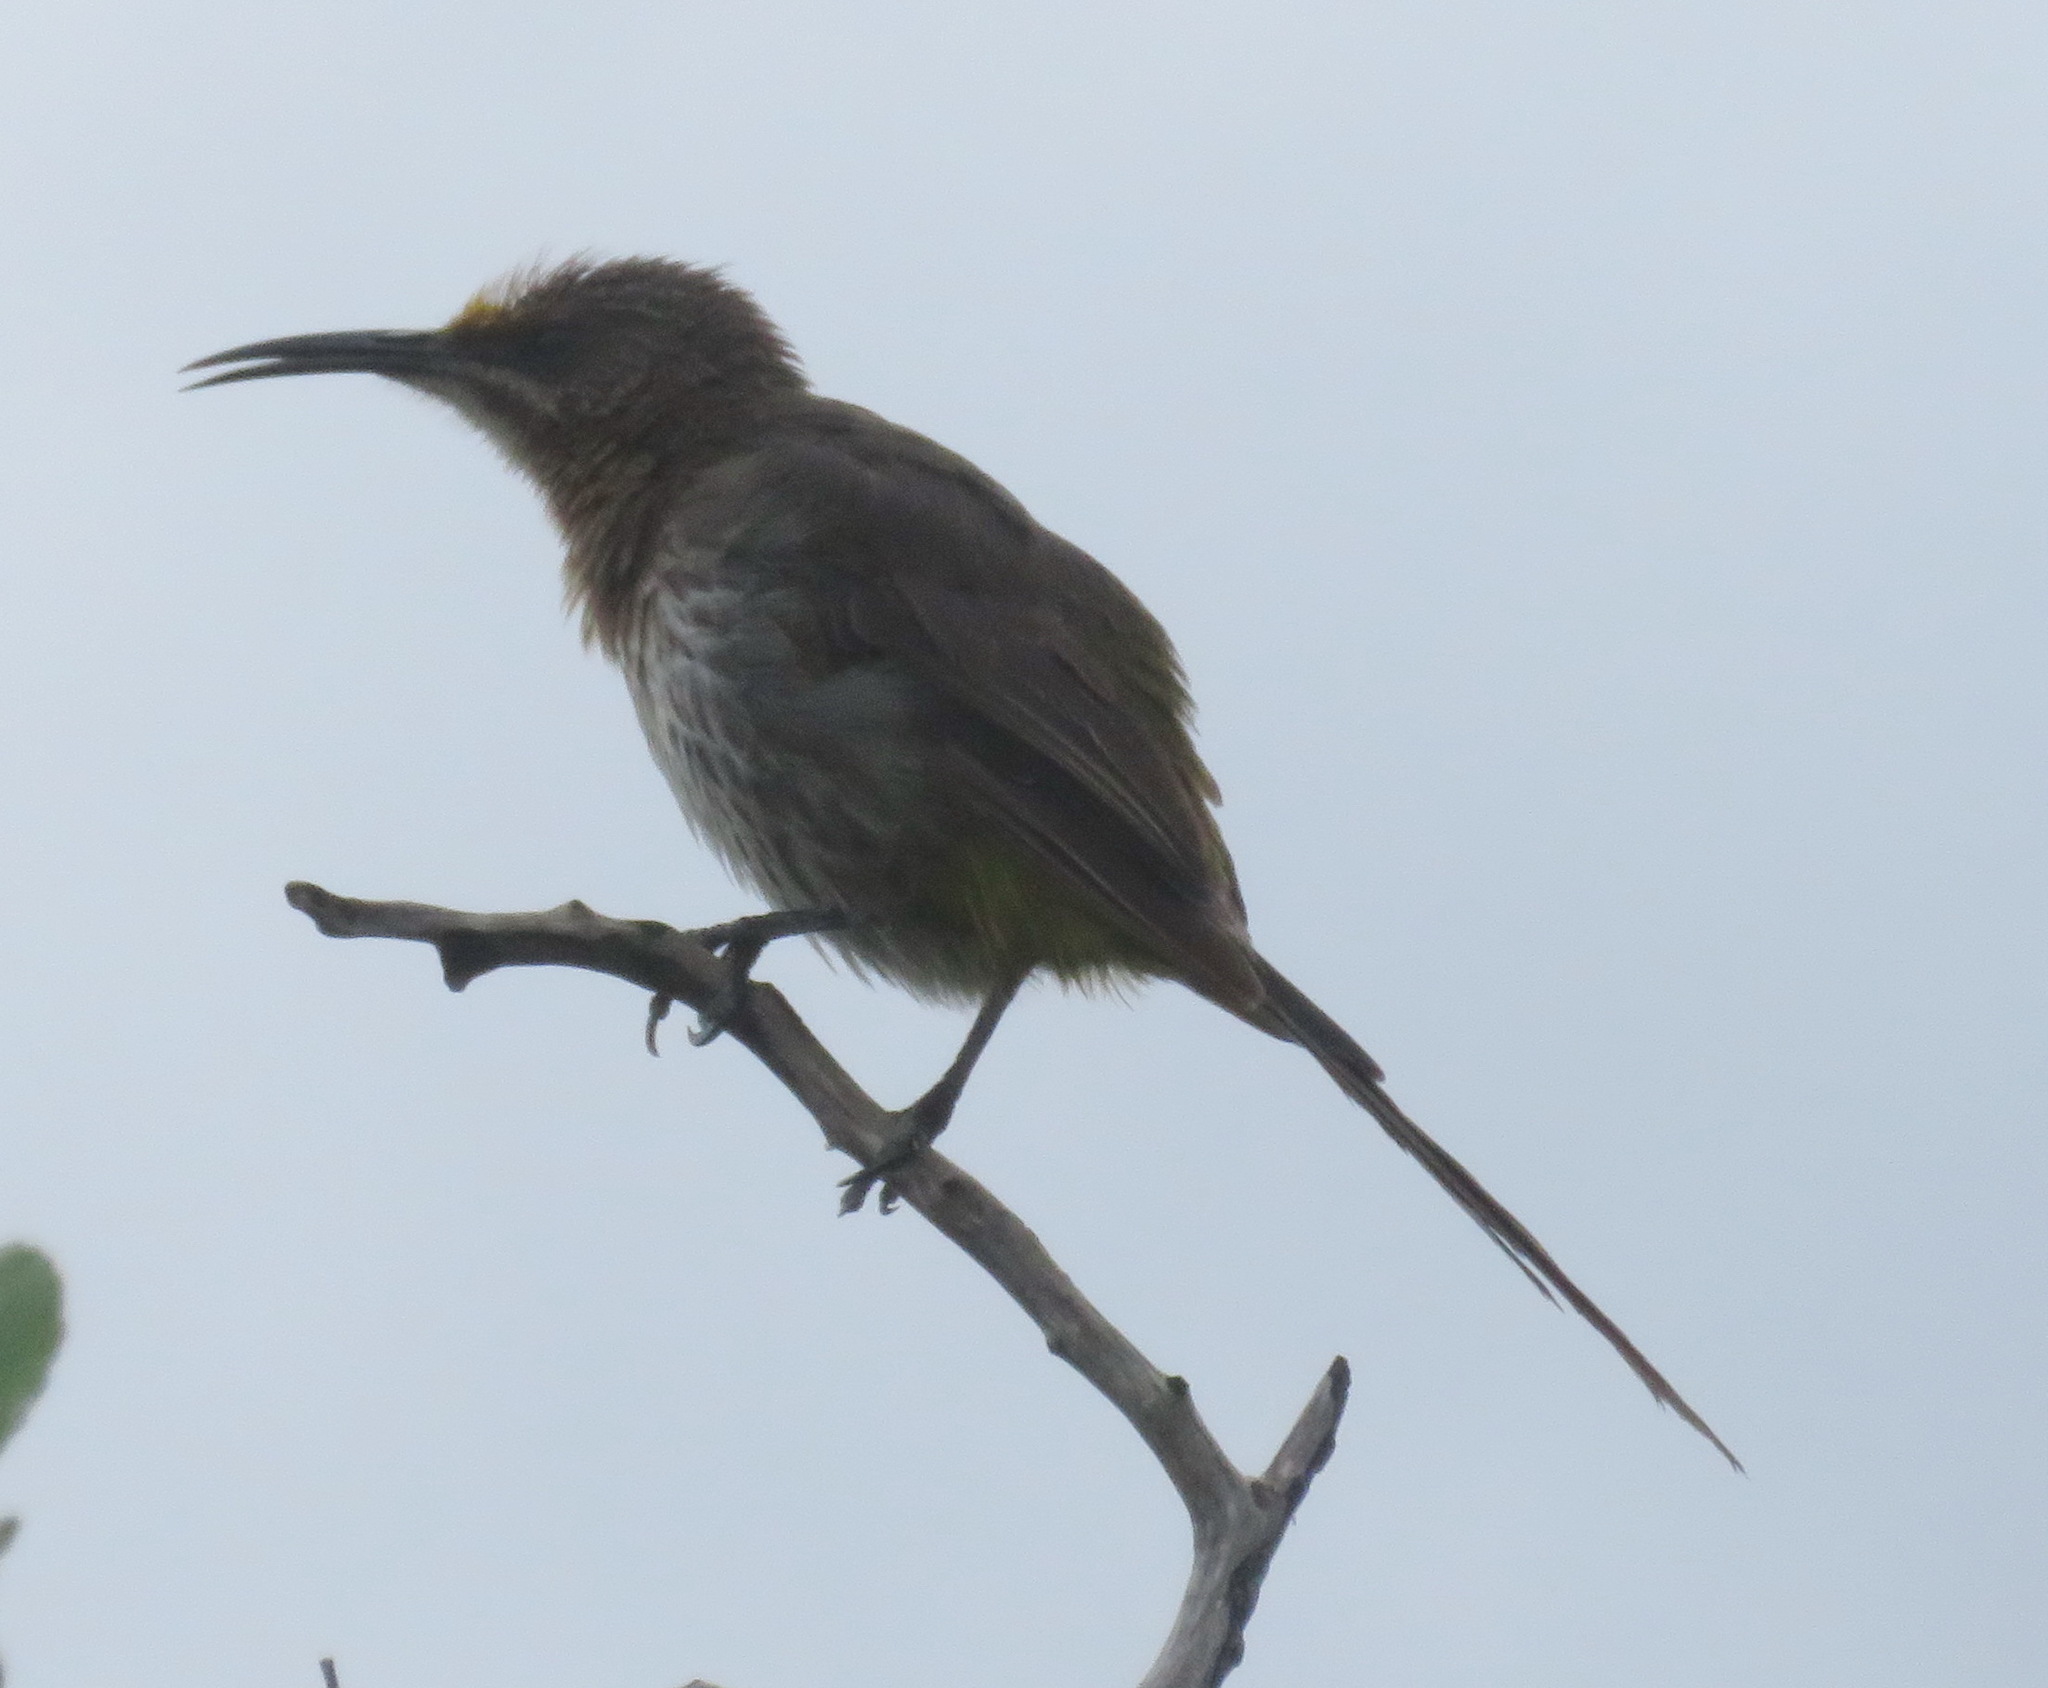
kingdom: Animalia
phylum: Chordata
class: Aves
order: Passeriformes
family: Promeropidae
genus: Promerops
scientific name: Promerops cafer
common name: Cape sugarbird
